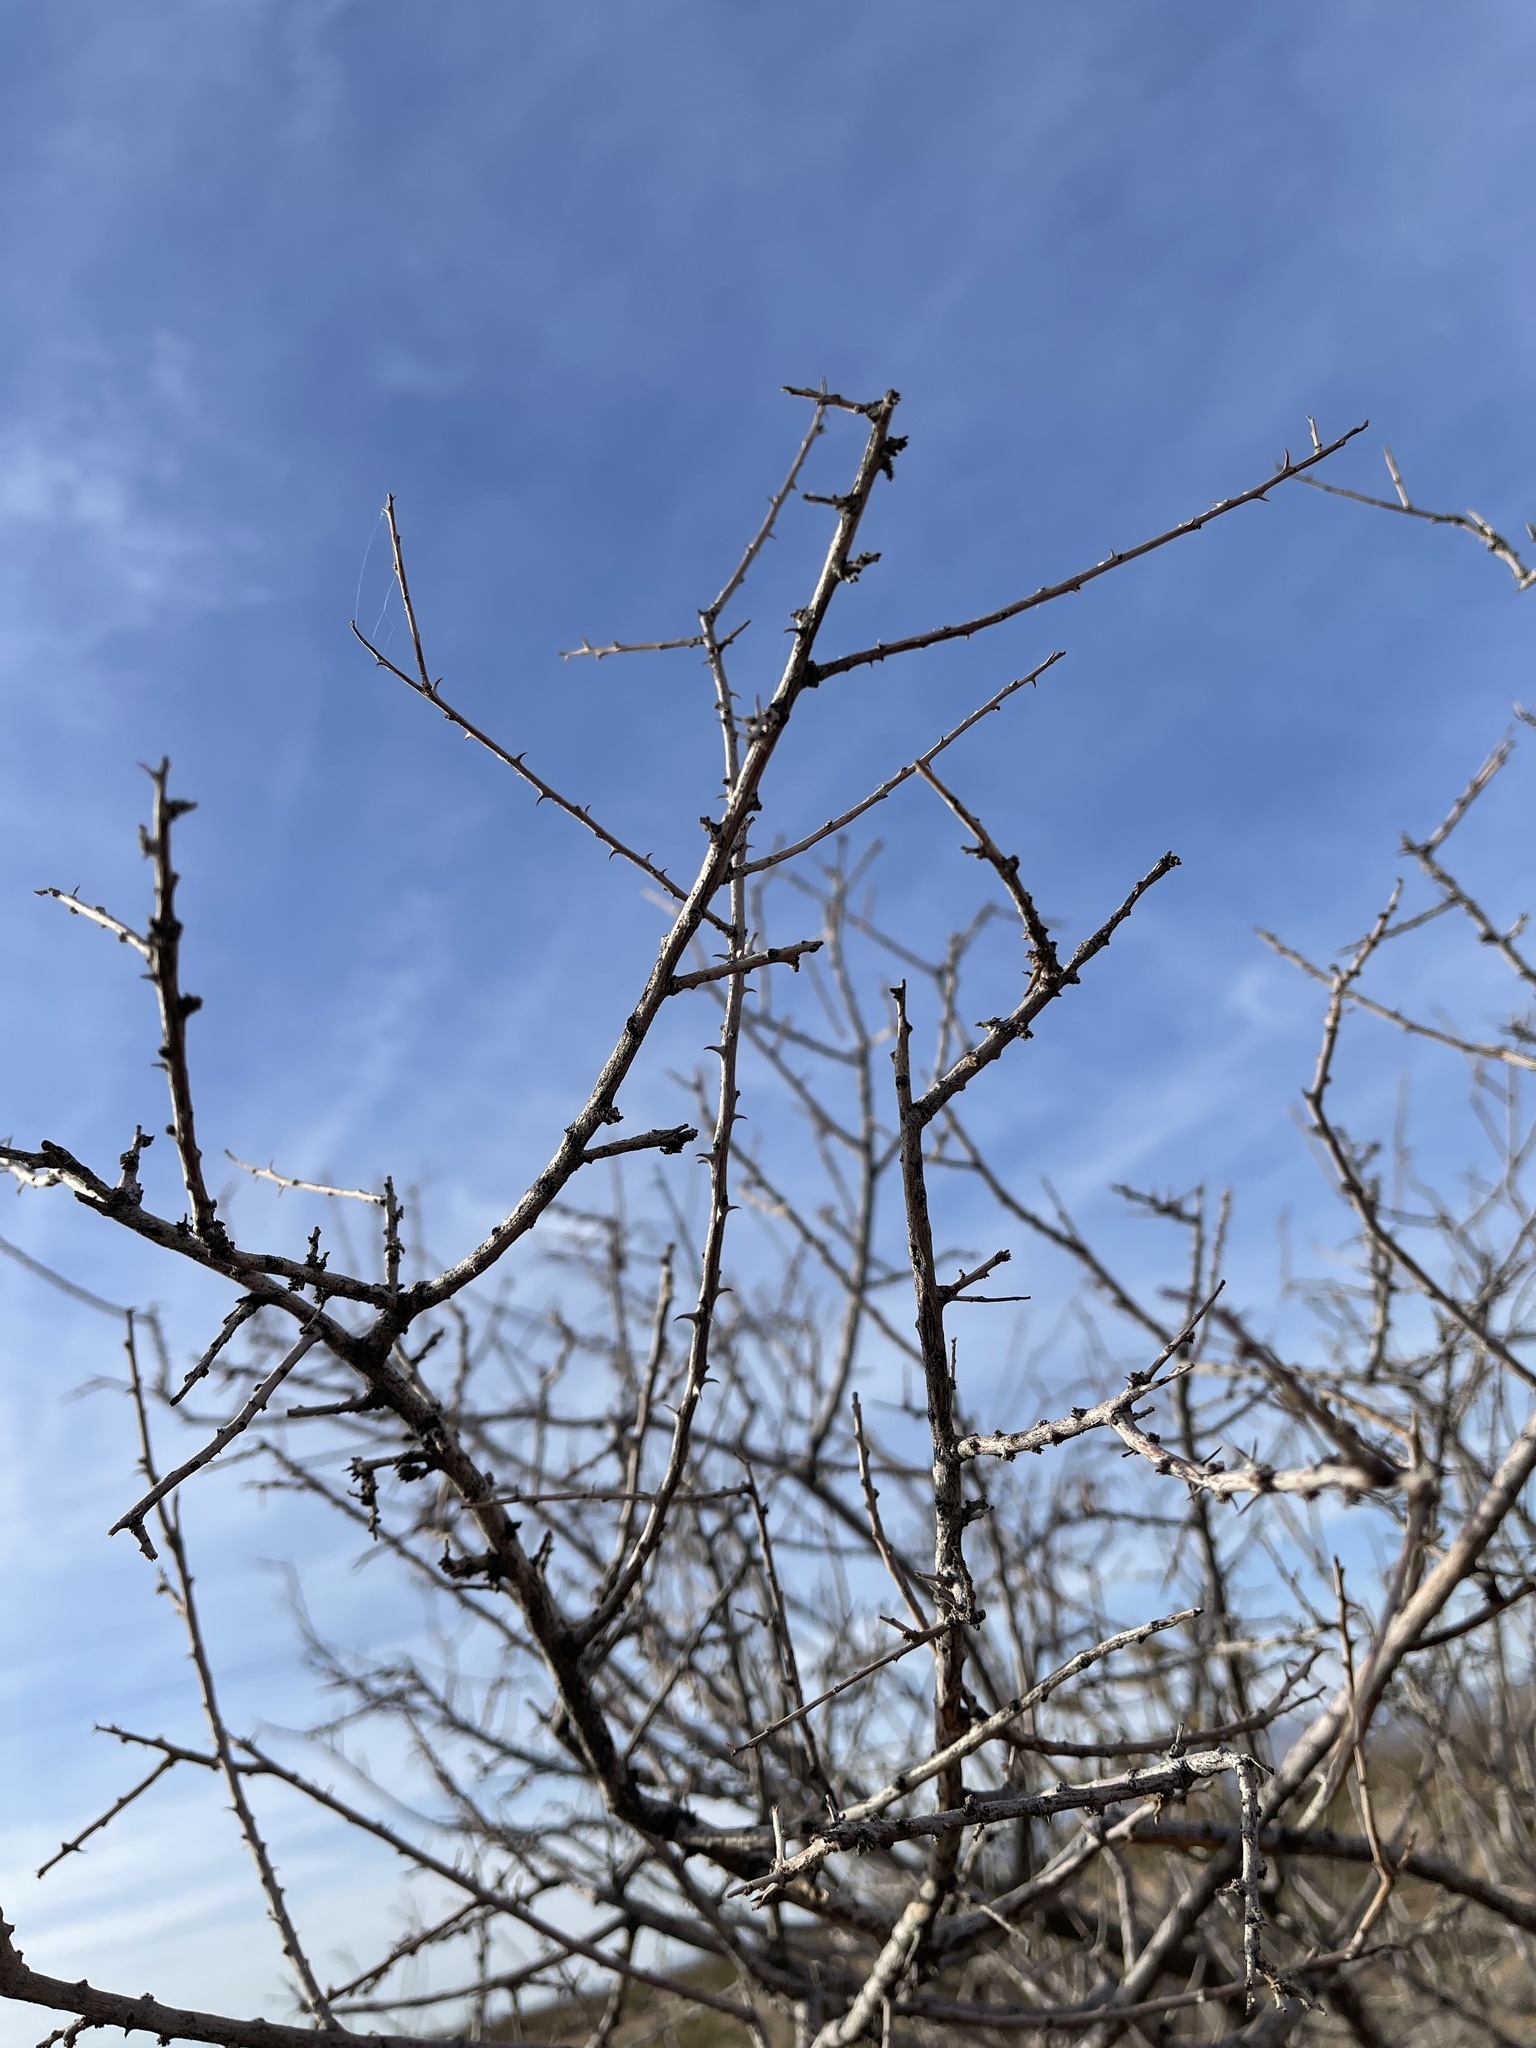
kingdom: Plantae
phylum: Tracheophyta
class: Magnoliopsida
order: Fabales
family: Fabaceae
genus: Senegalia
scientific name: Senegalia greggii
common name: Texas-mimosa
